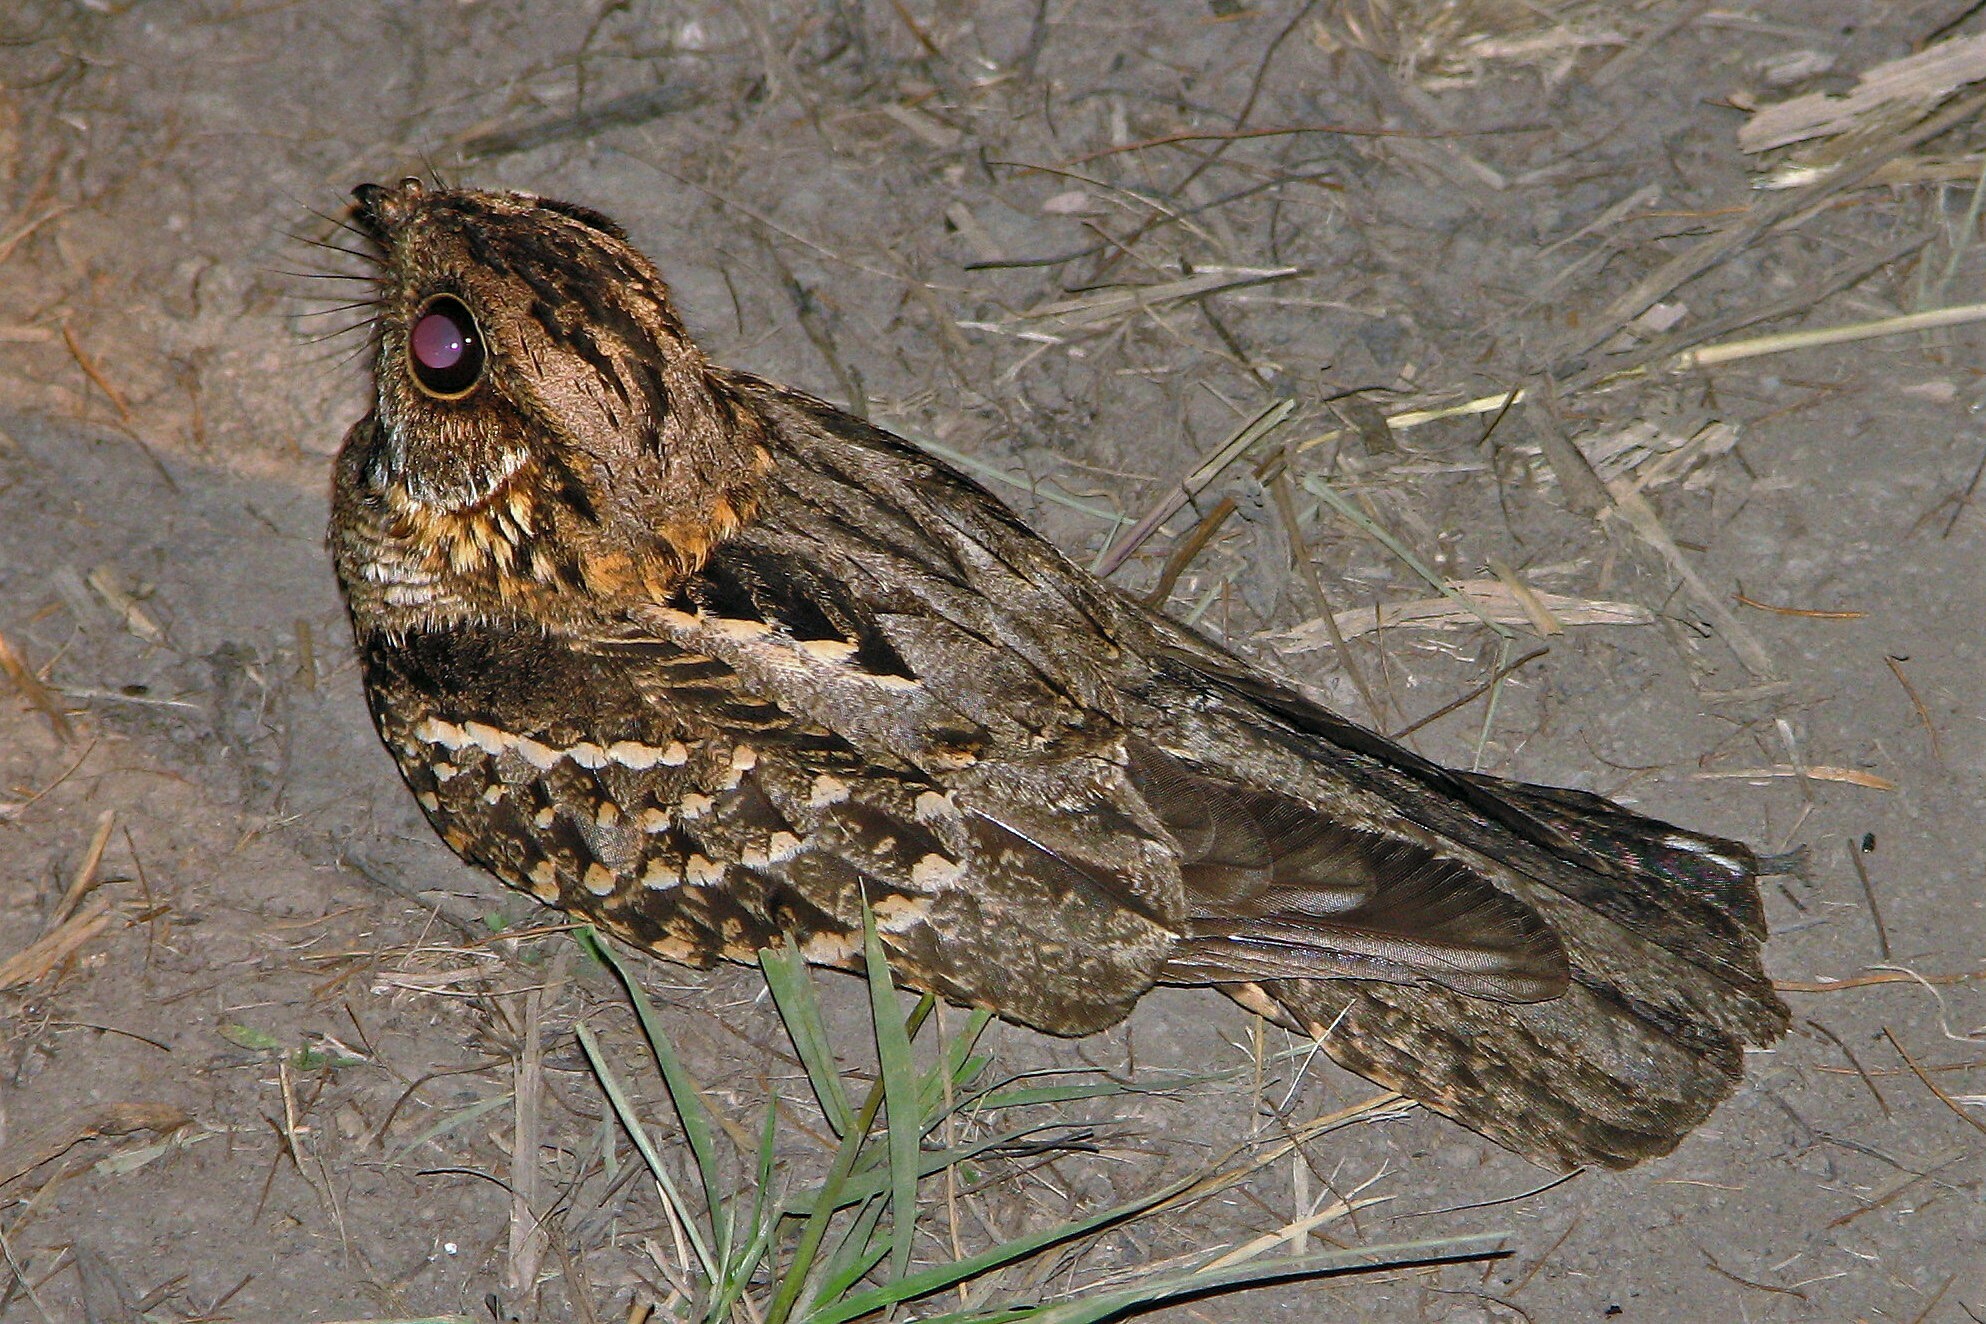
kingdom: Animalia
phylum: Chordata
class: Aves
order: Caprimulgiformes
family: Caprimulgidae
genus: Setopagis
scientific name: Setopagis parvula
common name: Little nightjar
